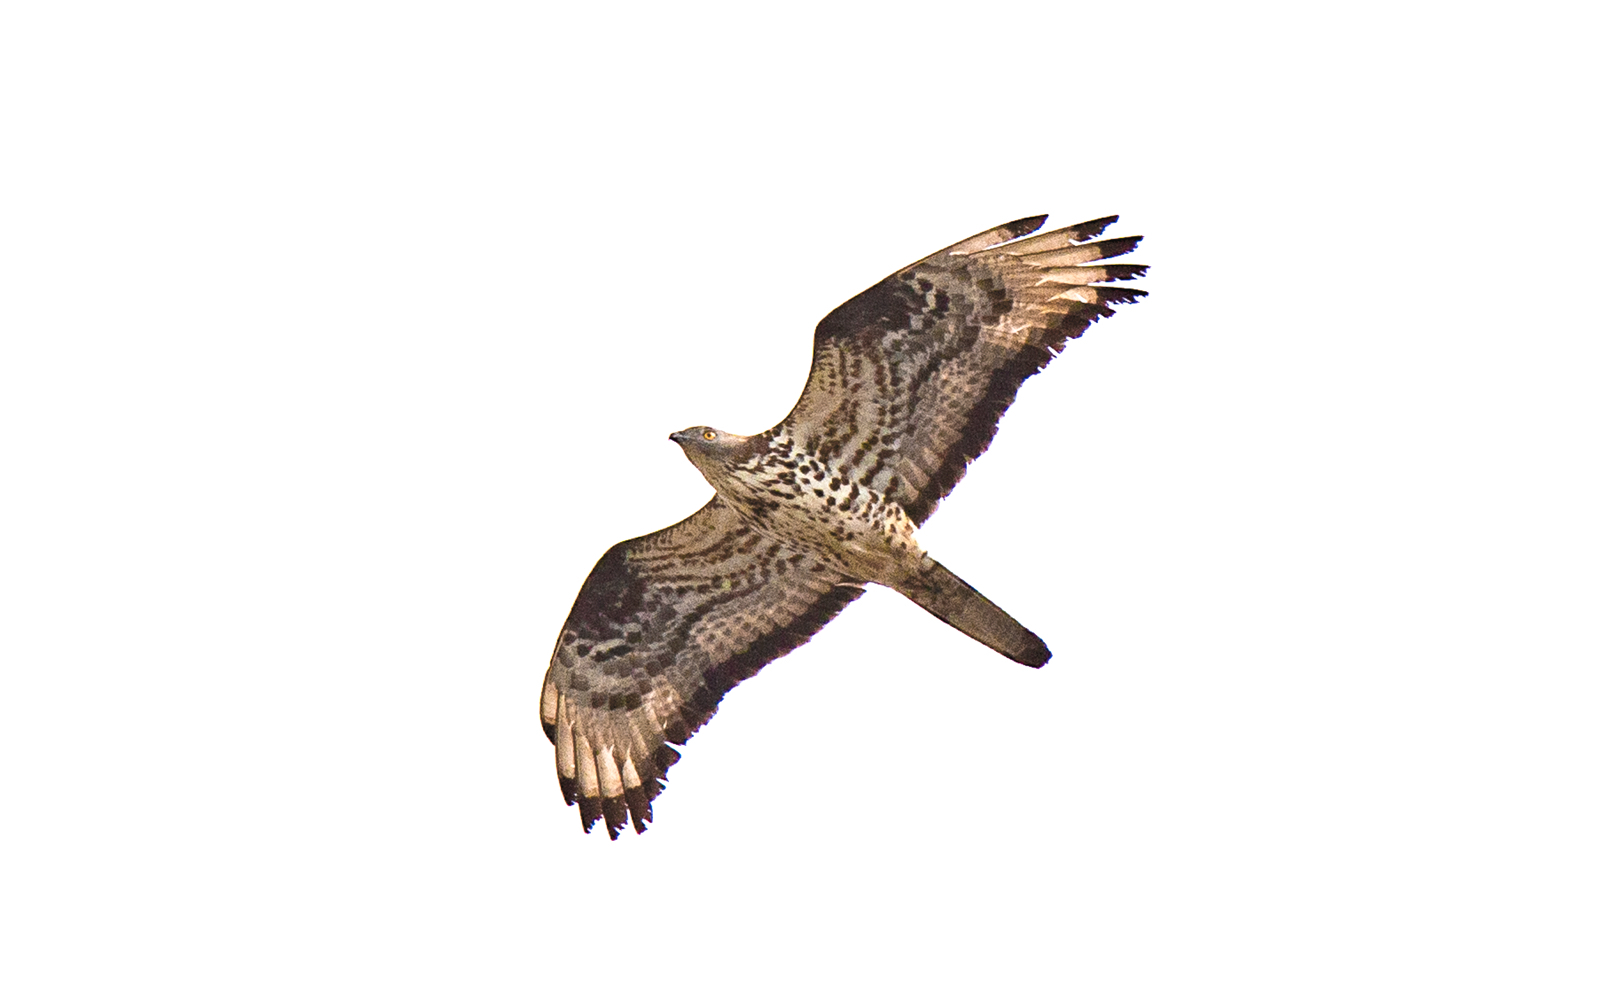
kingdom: Animalia
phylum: Chordata
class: Aves
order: Accipitriformes
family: Accipitridae
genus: Pernis
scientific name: Pernis apivorus
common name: European honey buzzard
